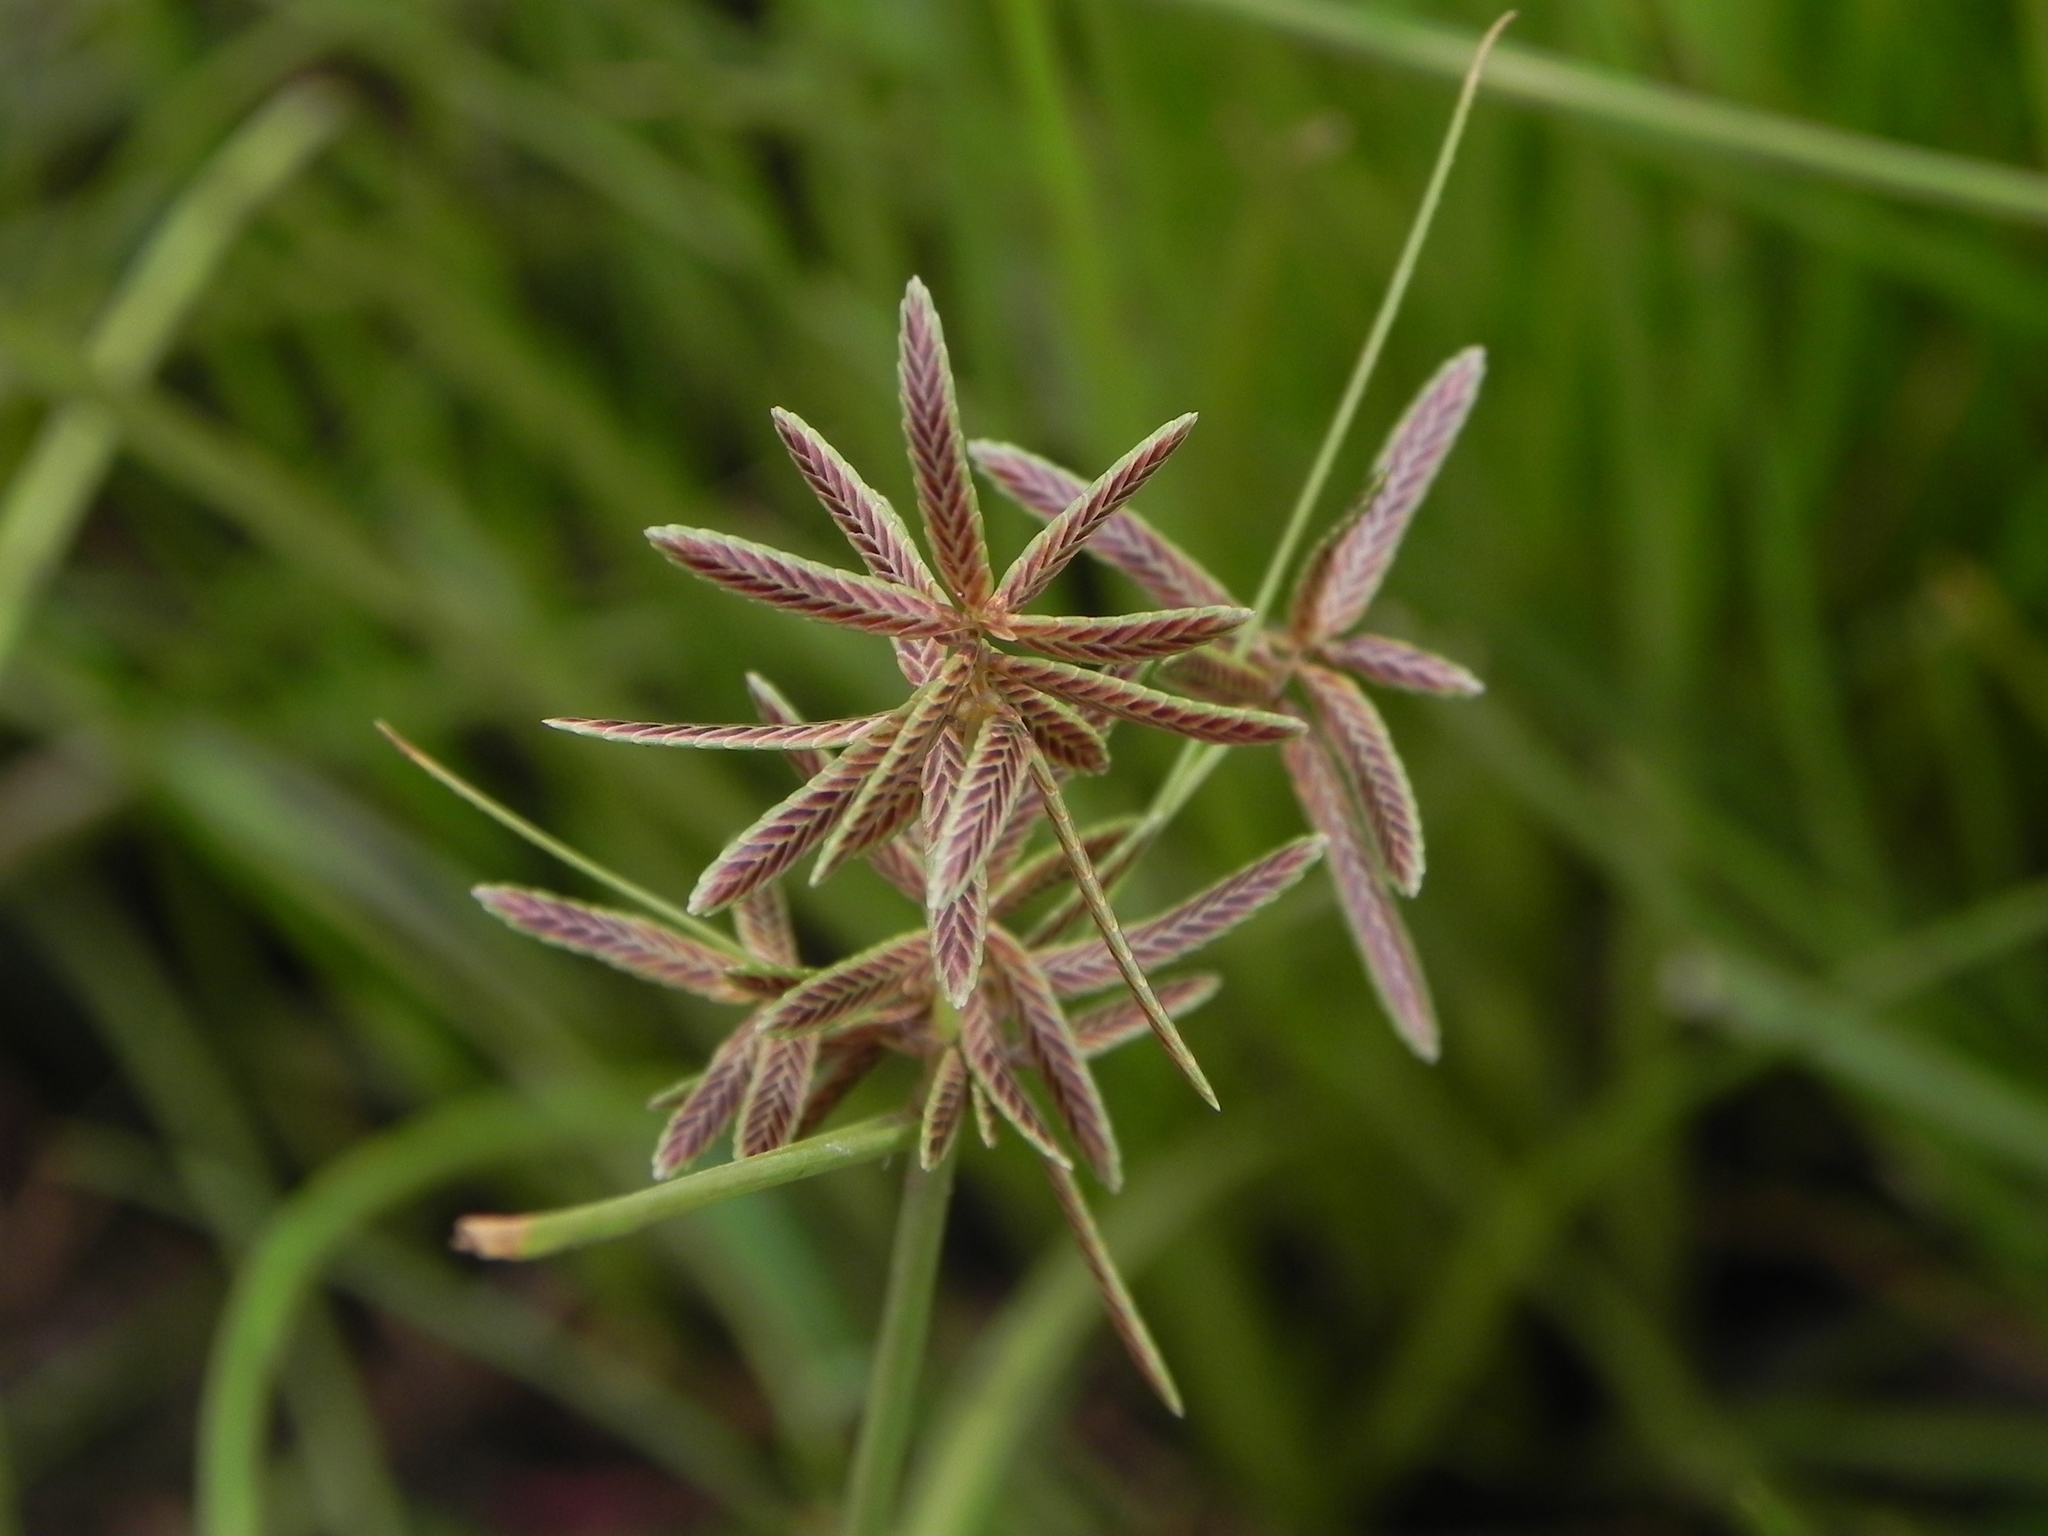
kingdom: Plantae
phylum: Tracheophyta
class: Liliopsida
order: Poales
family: Cyperaceae
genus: Cyperus
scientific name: Cyperus flavidus
